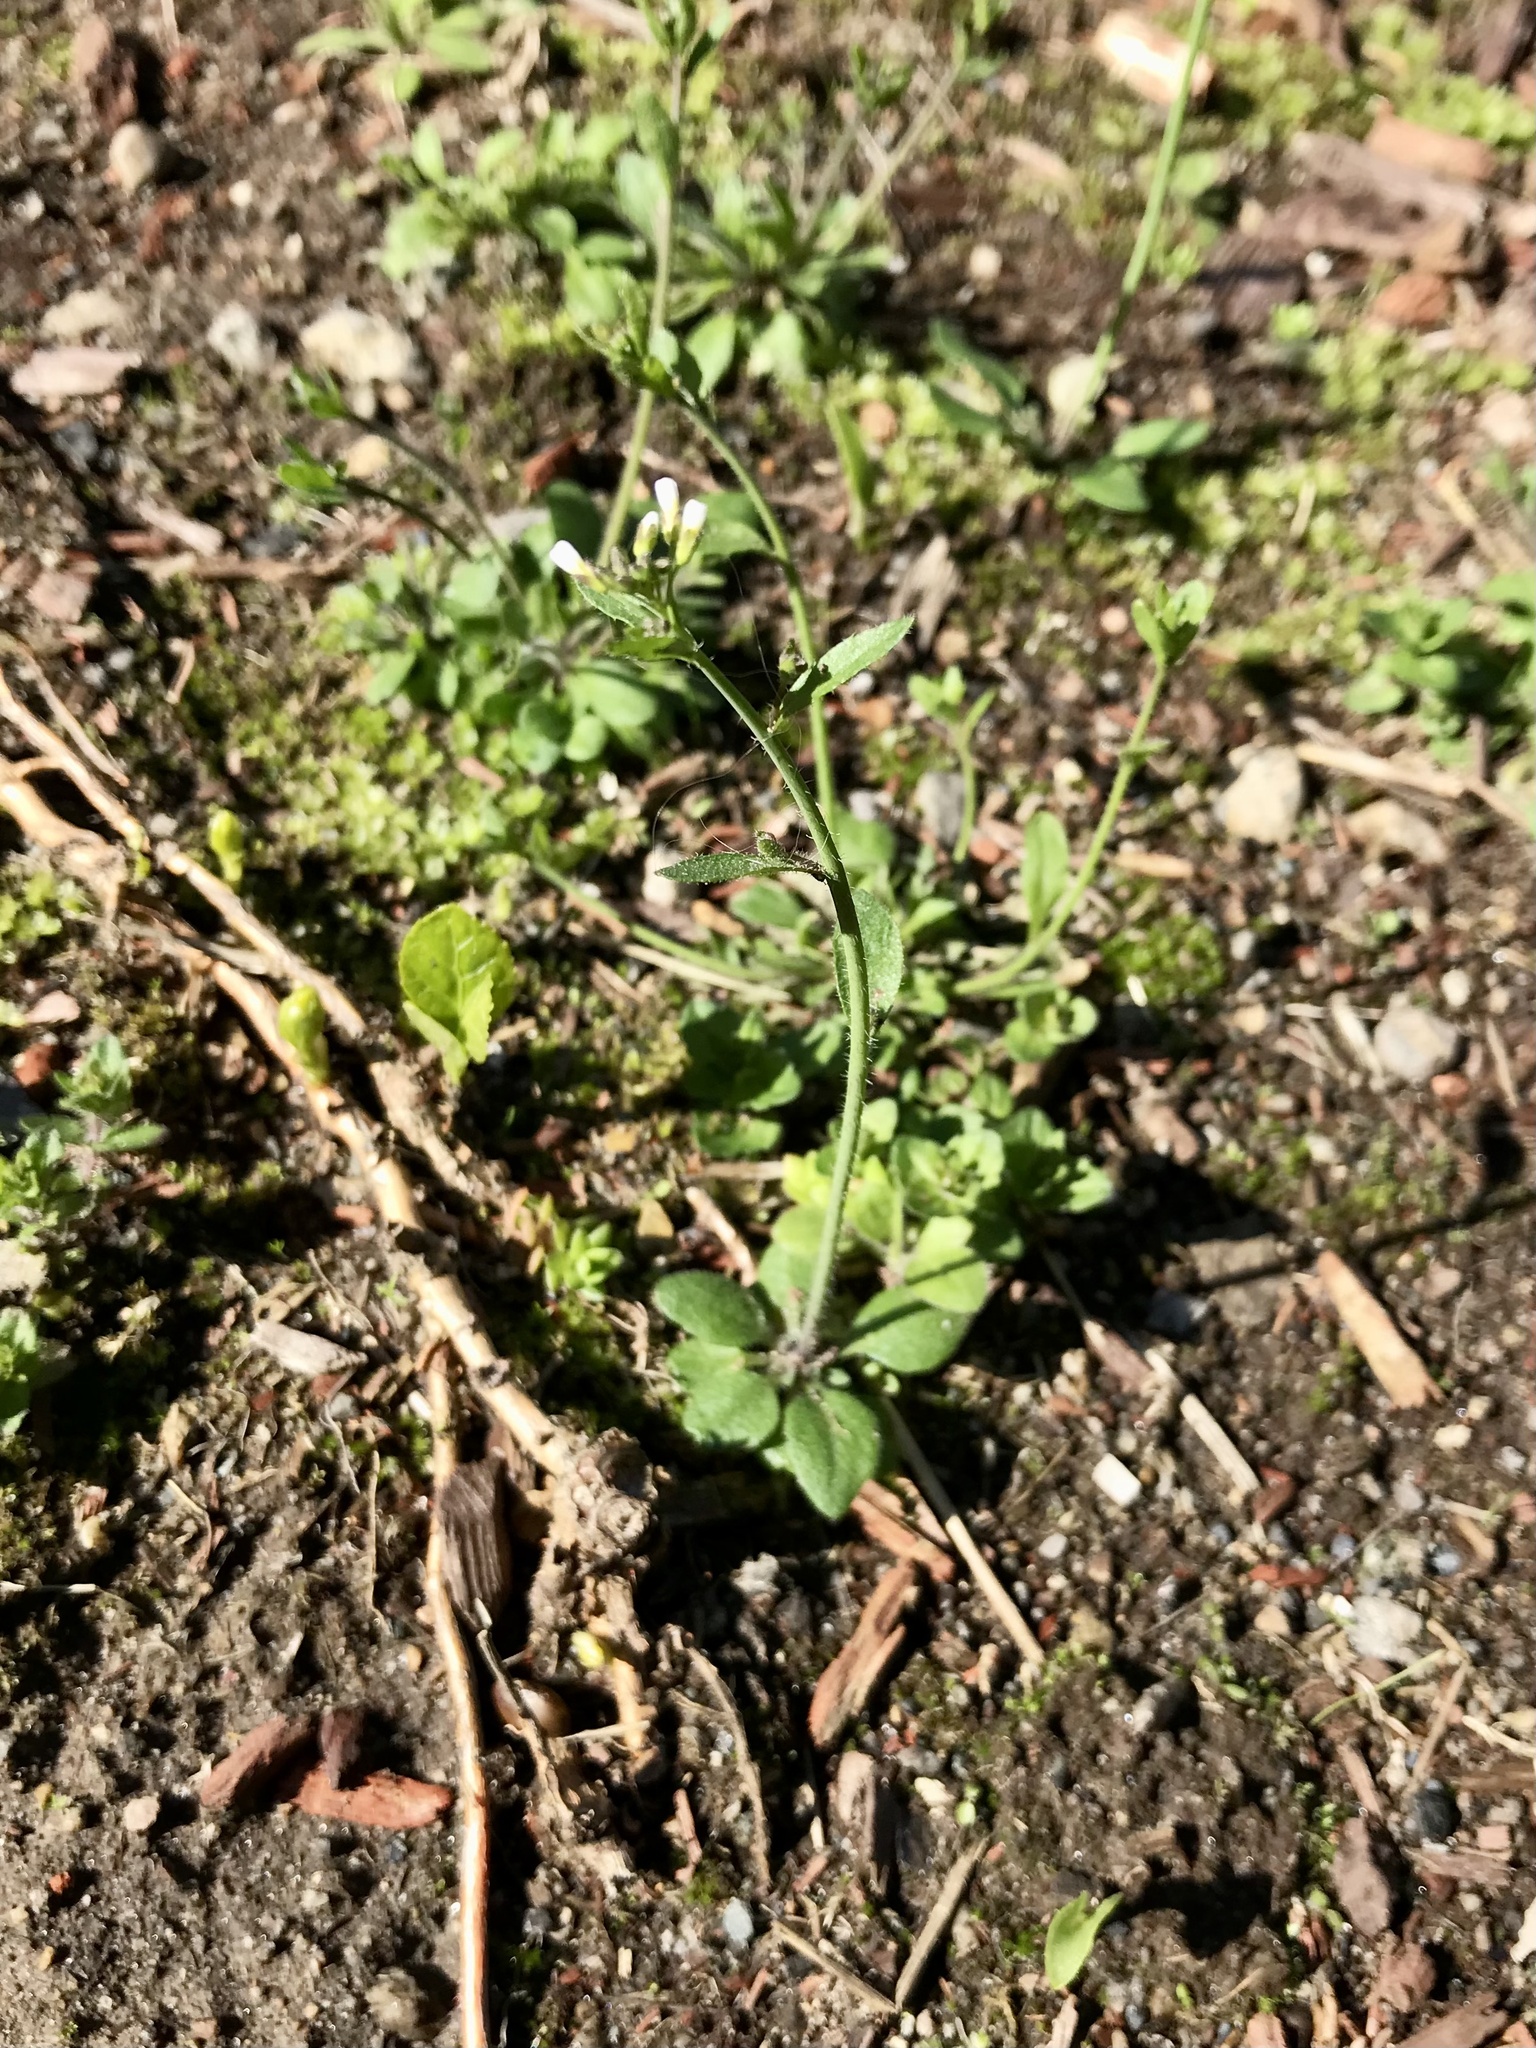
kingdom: Plantae
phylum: Tracheophyta
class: Magnoliopsida
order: Brassicales
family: Brassicaceae
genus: Arabidopsis
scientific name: Arabidopsis thaliana
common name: Thale cress
